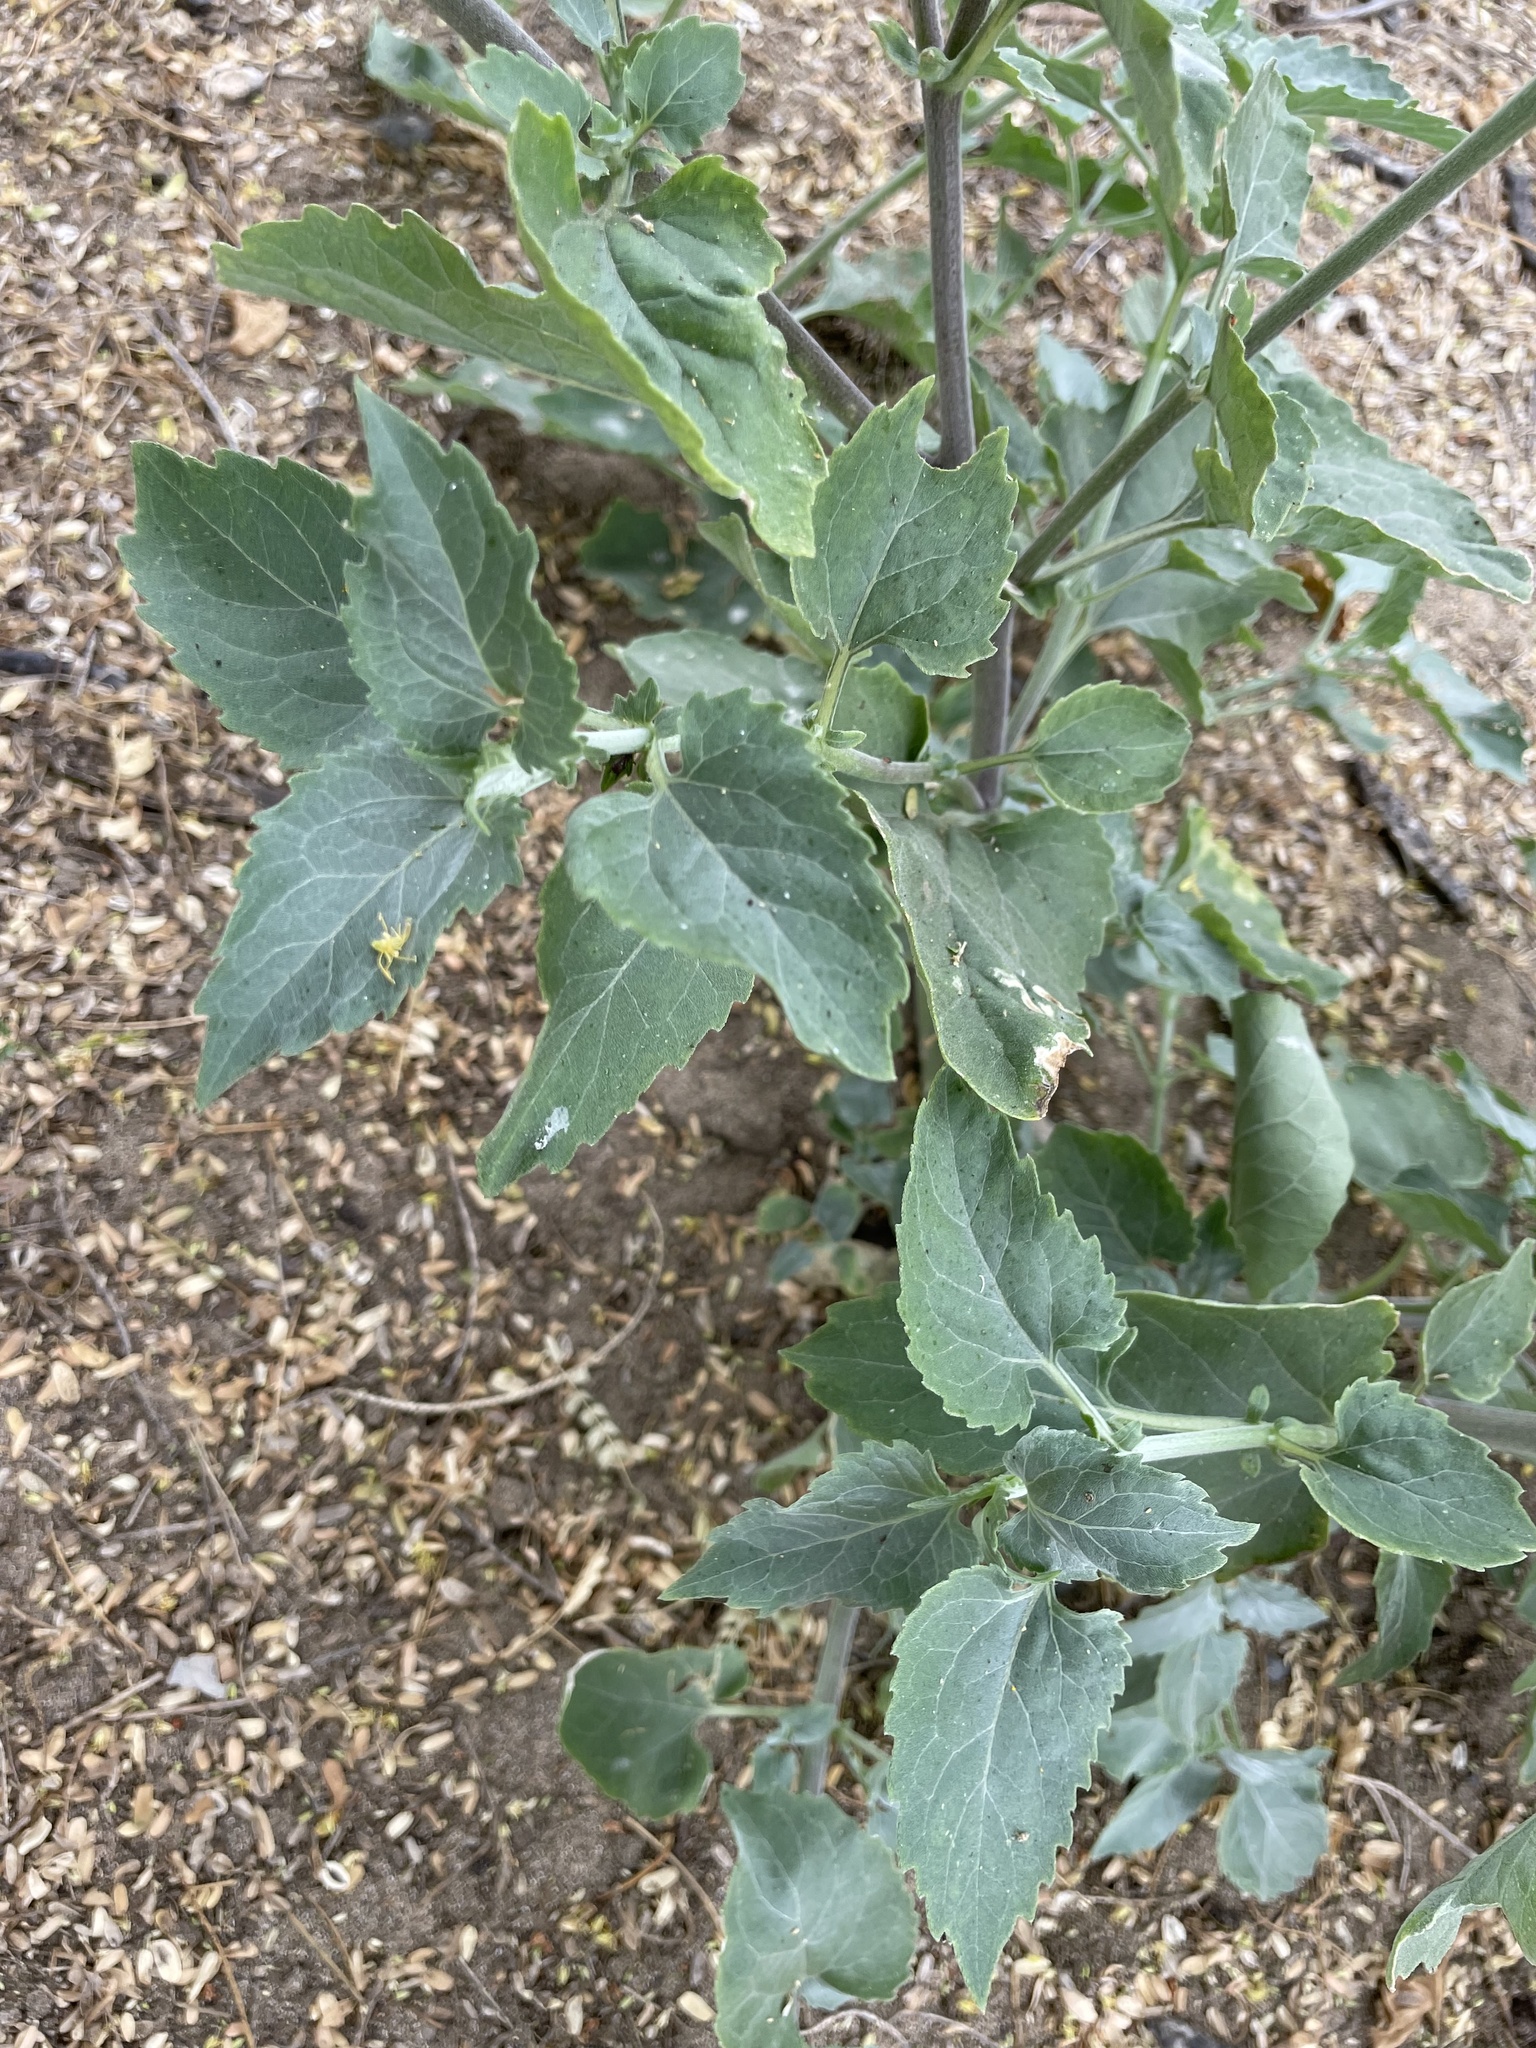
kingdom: Plantae
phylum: Tracheophyta
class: Magnoliopsida
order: Asterales
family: Asteraceae
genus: Verbesina
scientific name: Verbesina encelioides
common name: Golden crownbeard
